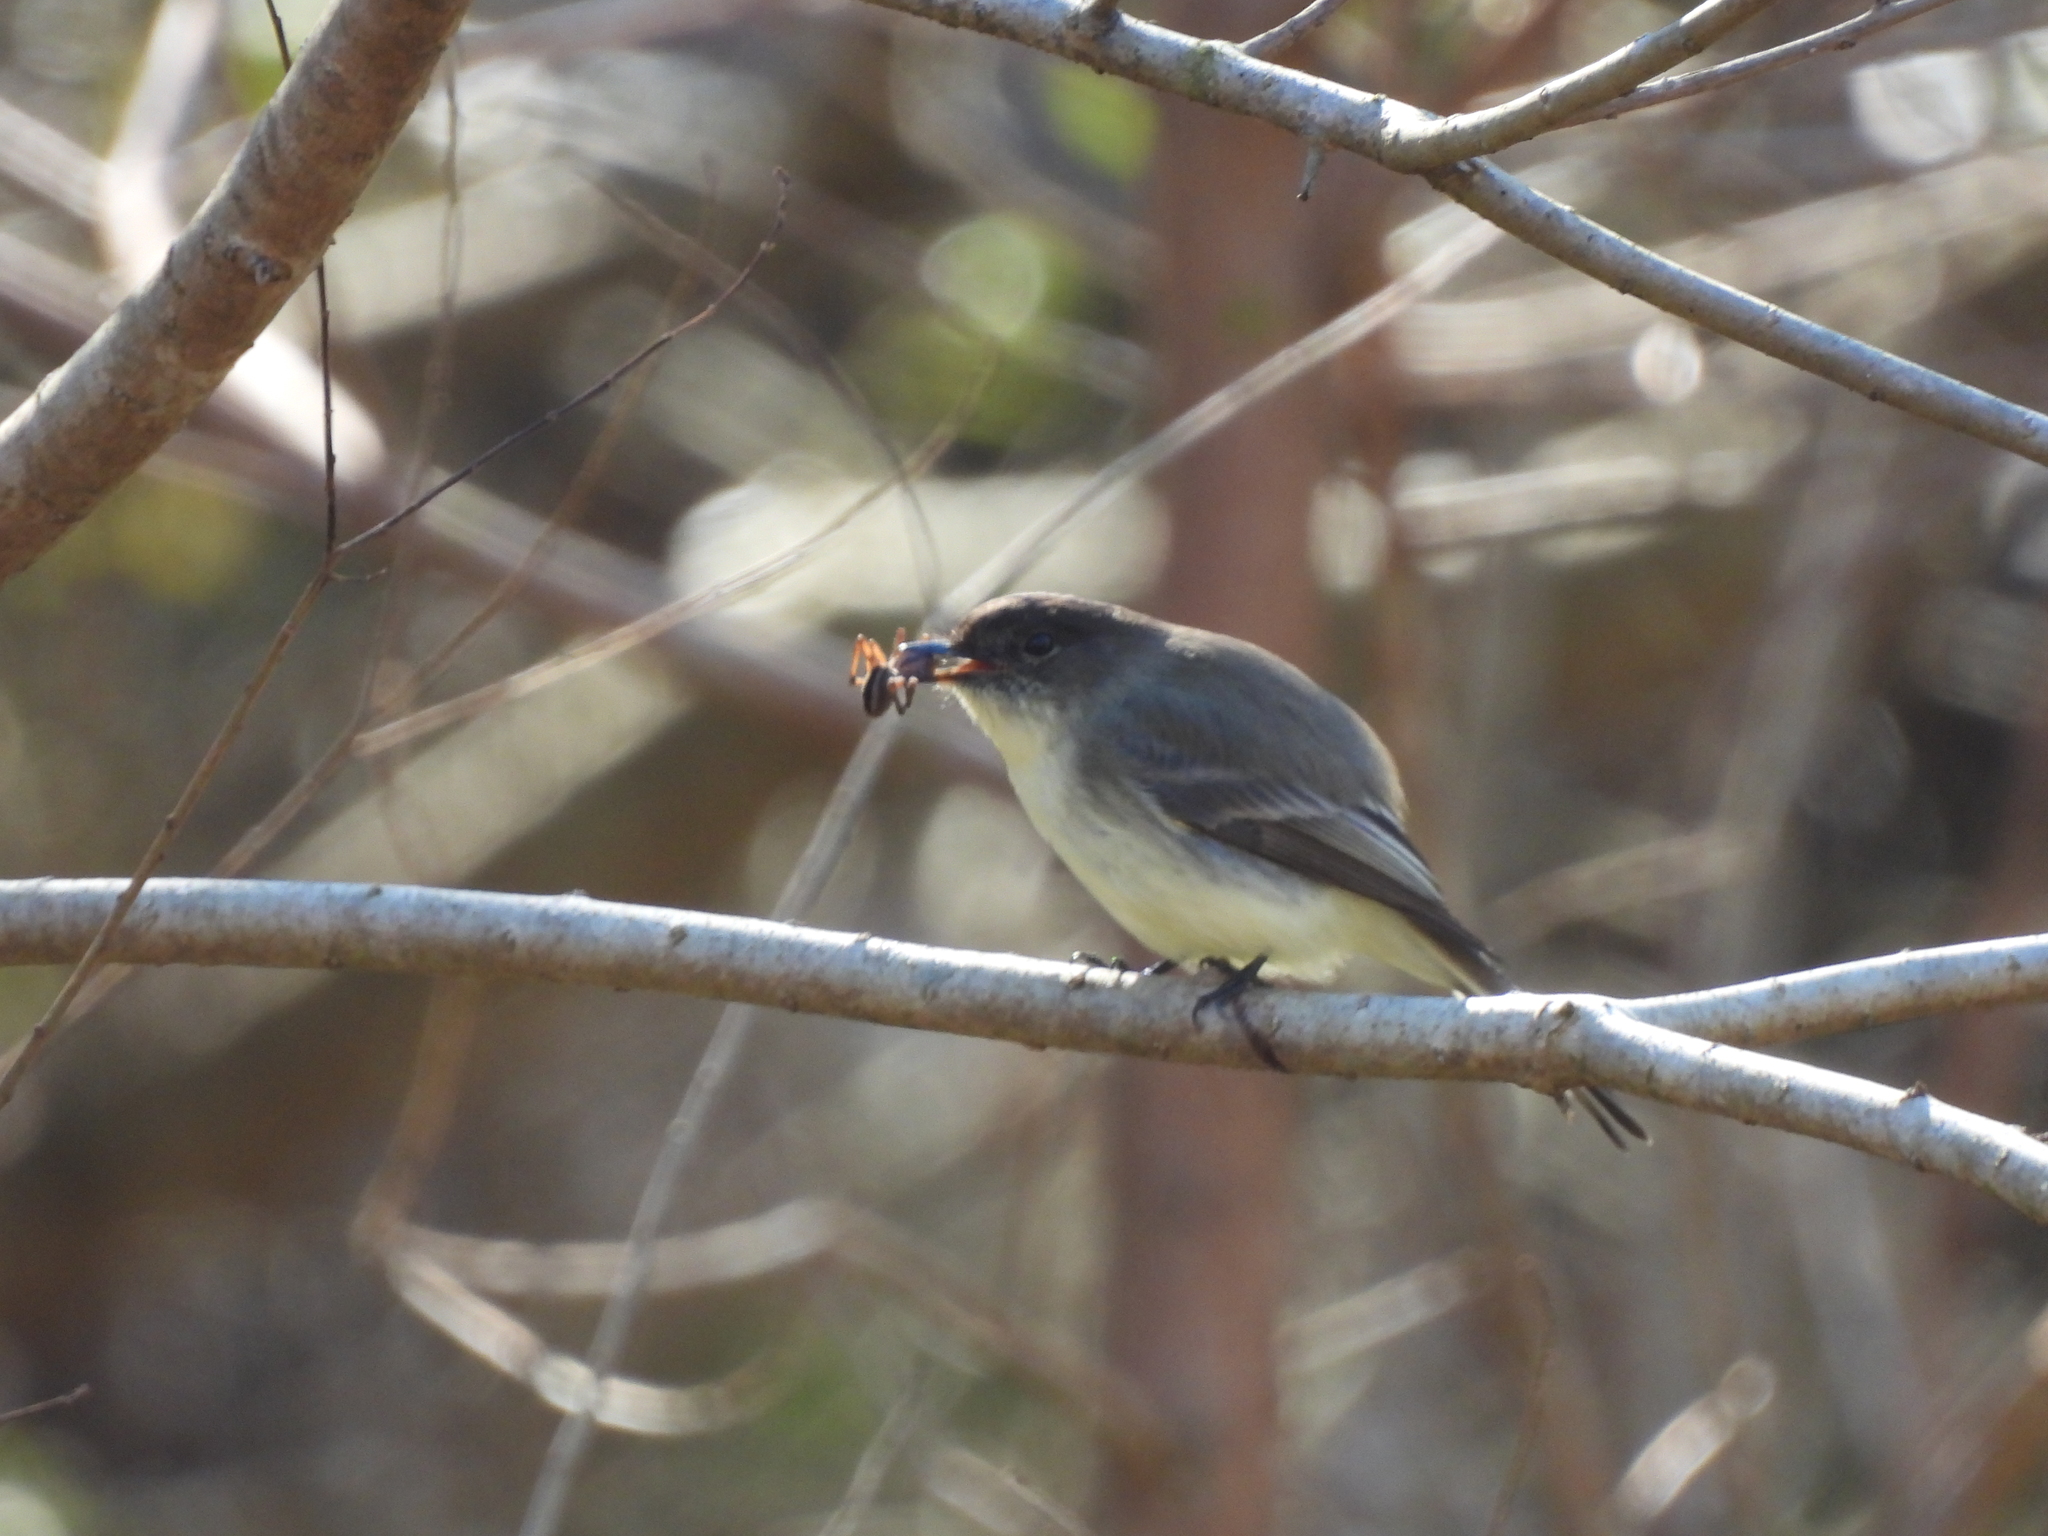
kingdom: Animalia
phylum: Chordata
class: Aves
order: Passeriformes
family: Tyrannidae
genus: Sayornis
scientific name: Sayornis phoebe
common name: Eastern phoebe
